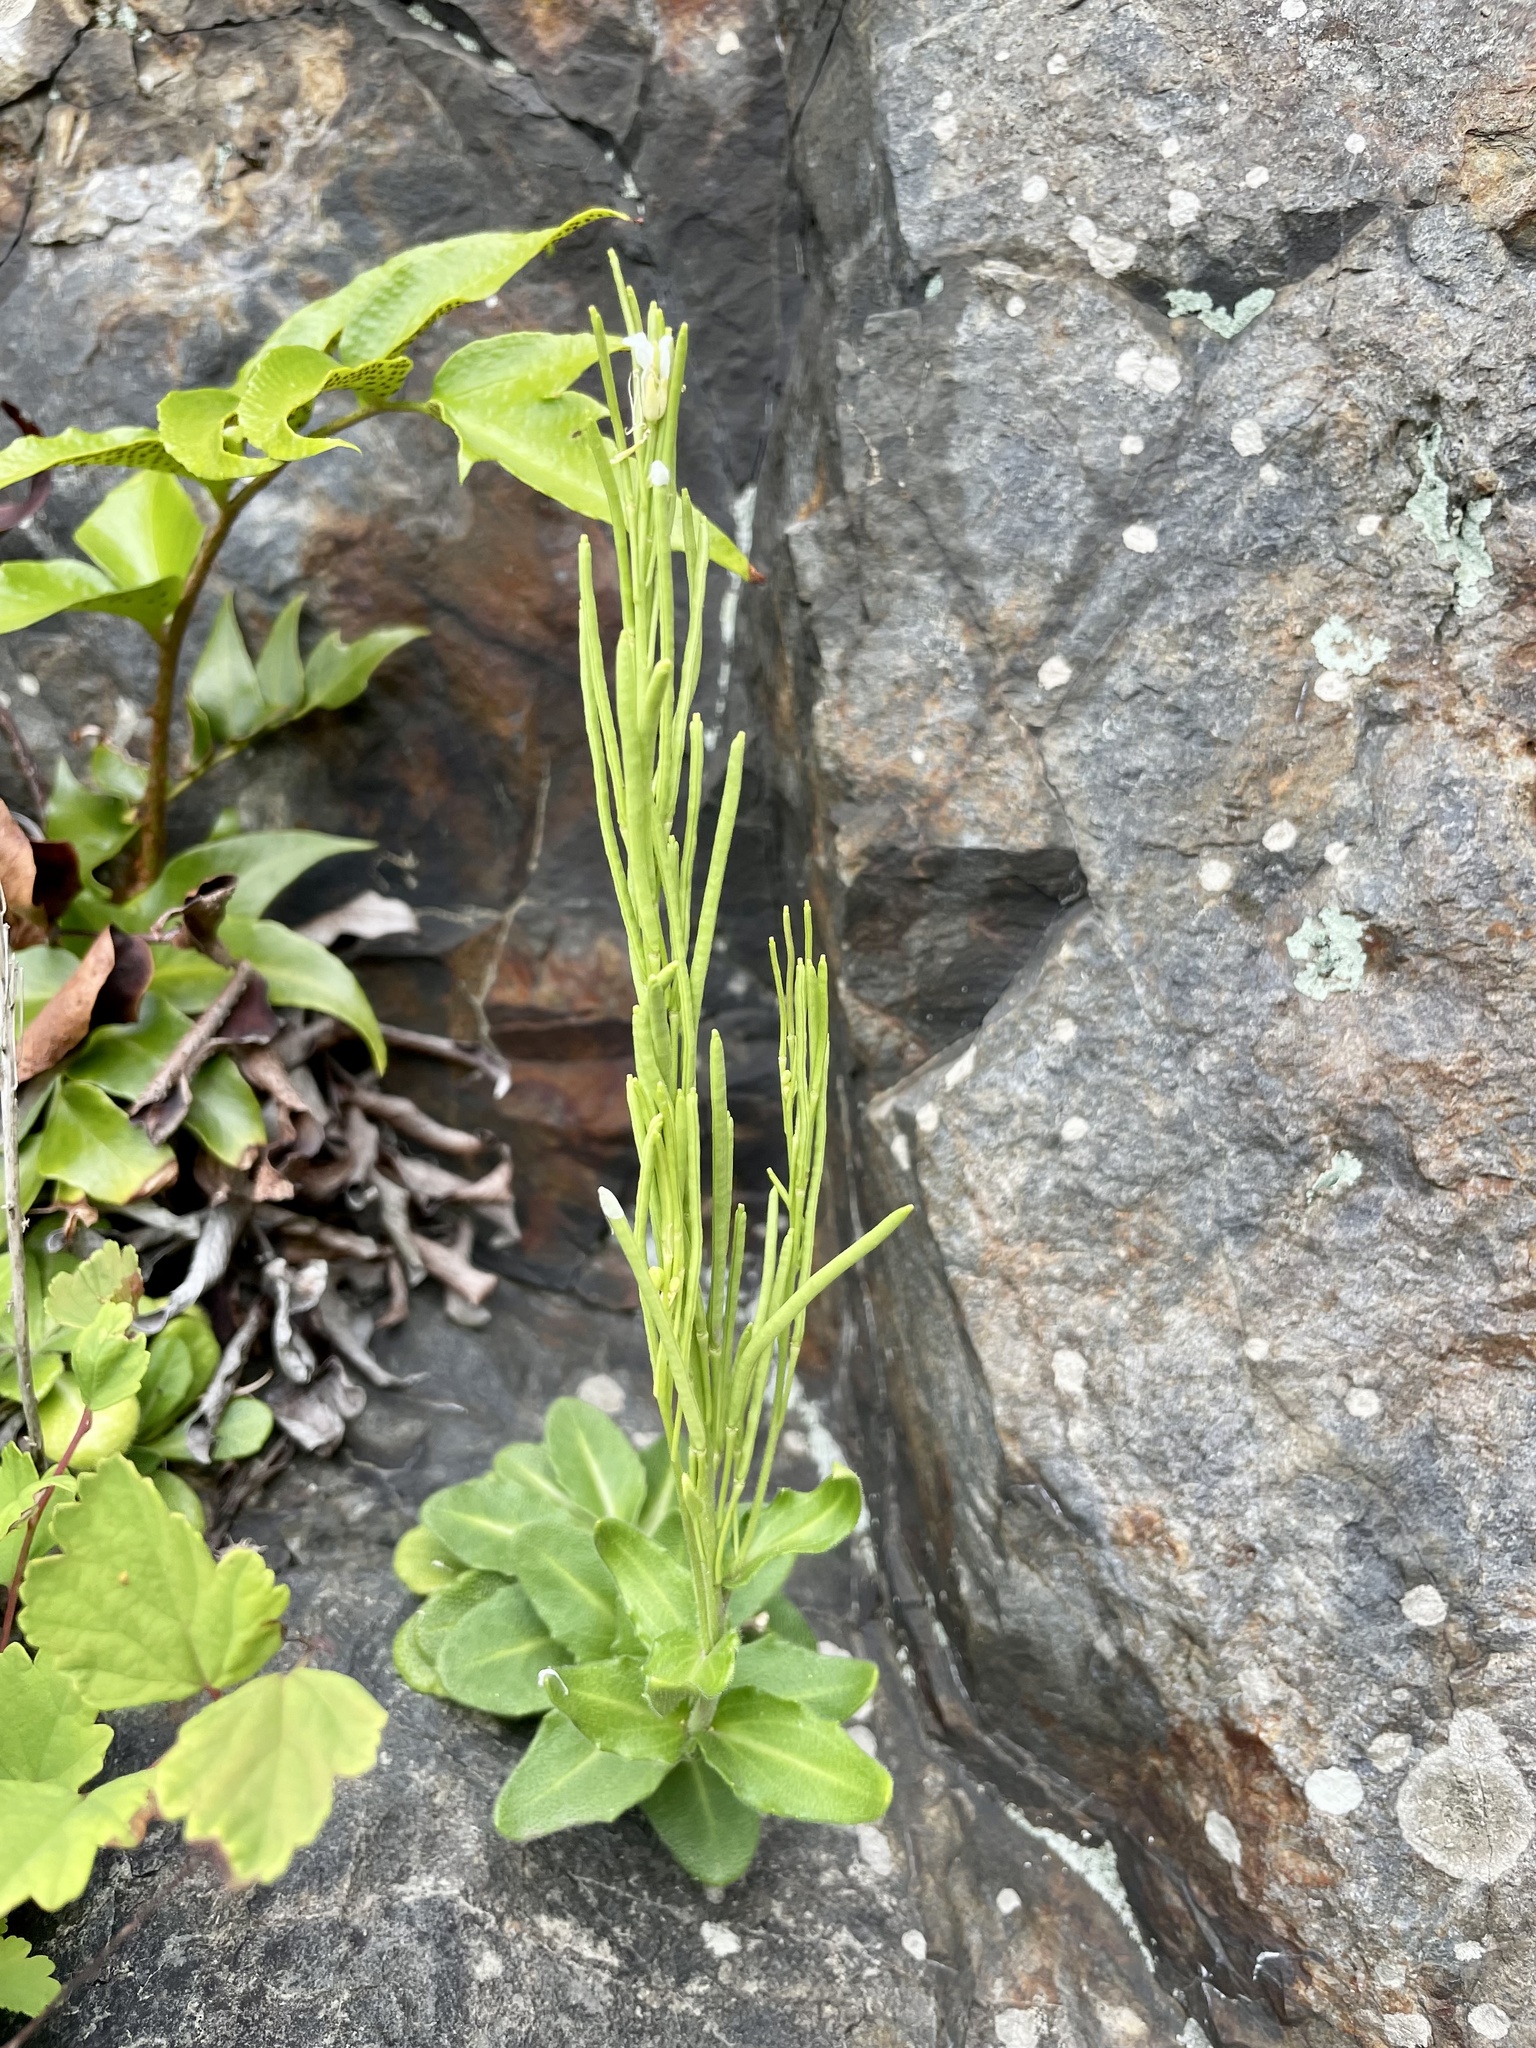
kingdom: Plantae
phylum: Tracheophyta
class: Magnoliopsida
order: Brassicales
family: Brassicaceae
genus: Arabis
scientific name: Arabis
